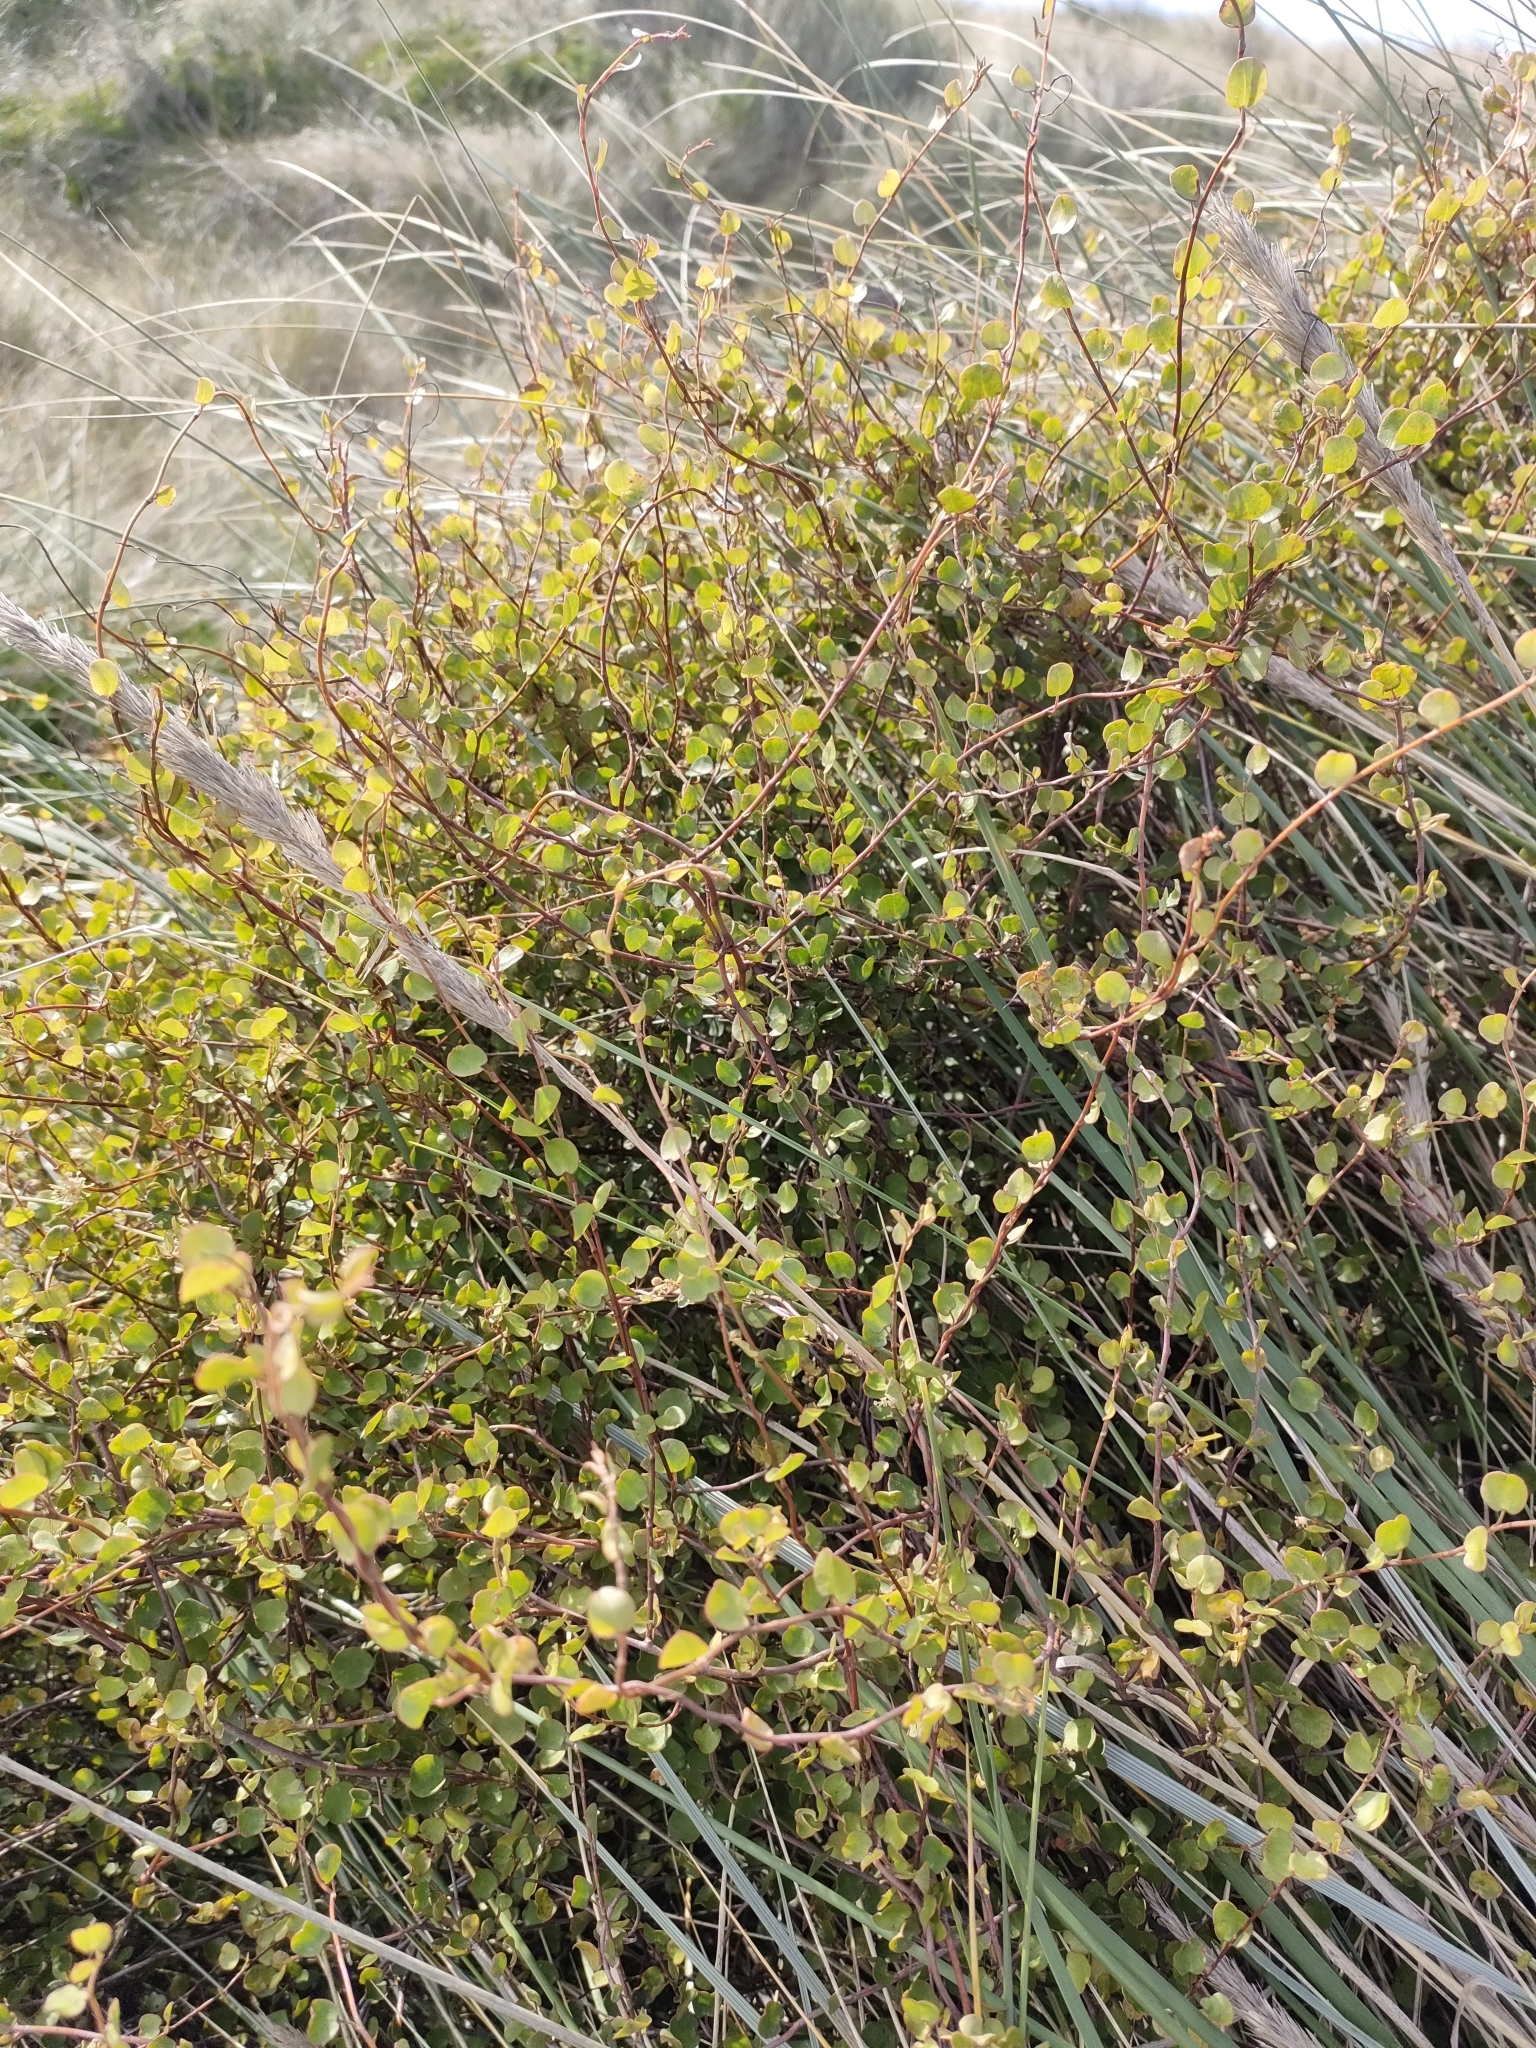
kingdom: Plantae
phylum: Tracheophyta
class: Magnoliopsida
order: Caryophyllales
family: Polygonaceae
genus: Muehlenbeckia
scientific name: Muehlenbeckia complexa
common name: Wireplant
